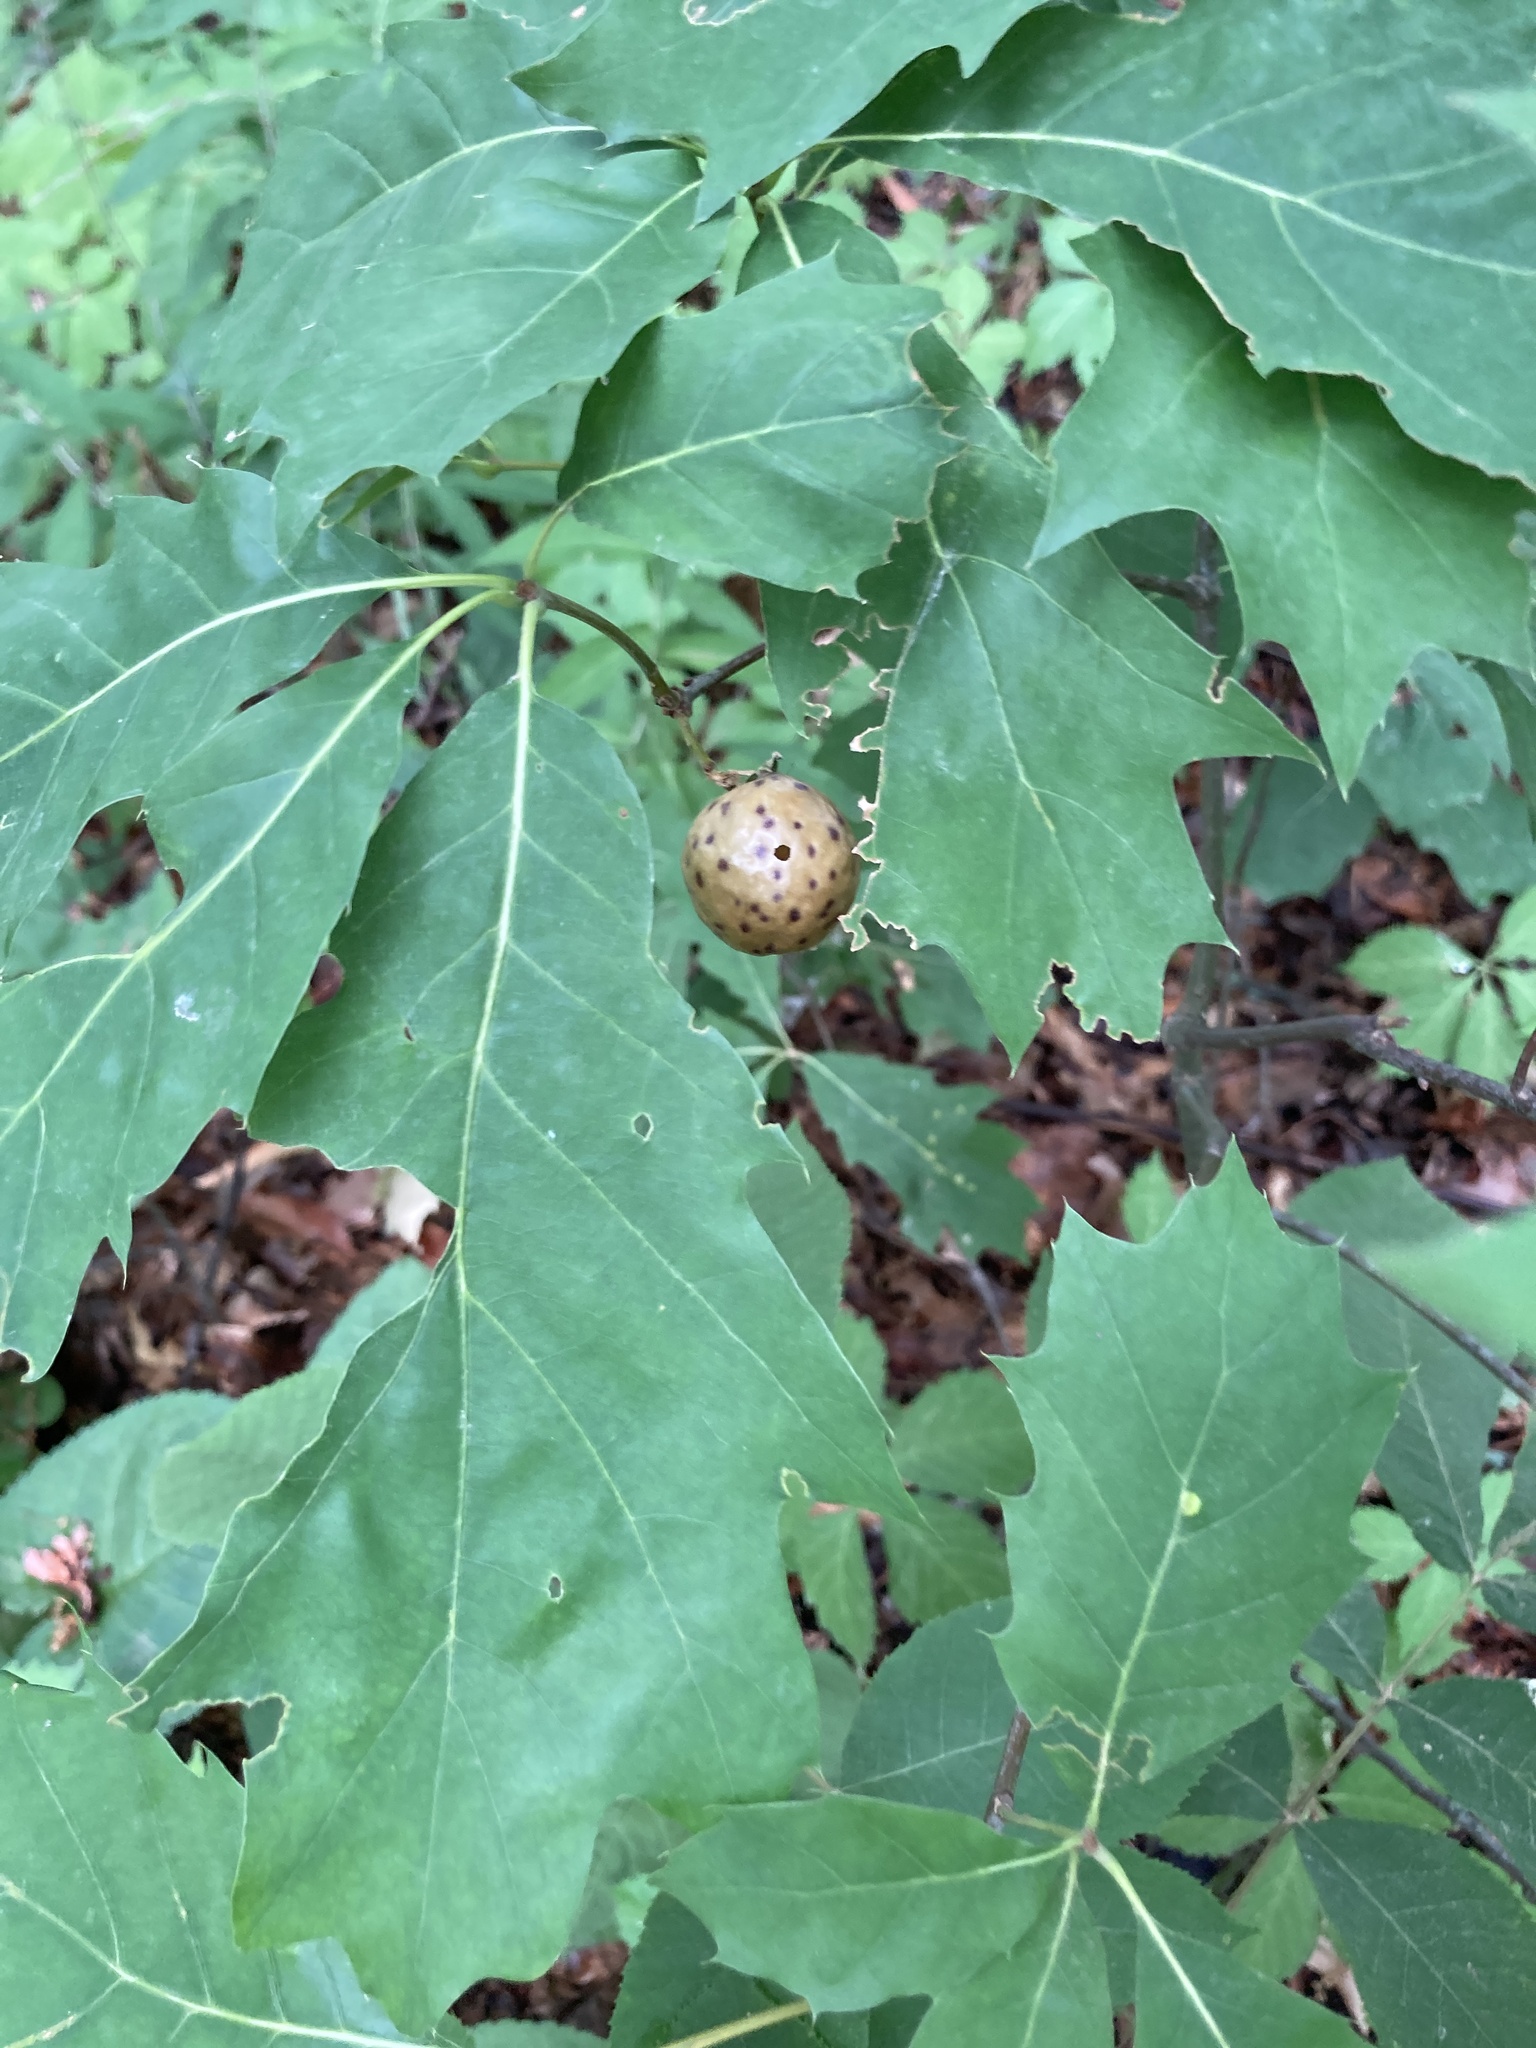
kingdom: Animalia
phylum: Arthropoda
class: Insecta
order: Hymenoptera
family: Cynipidae
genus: Amphibolips
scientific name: Amphibolips
